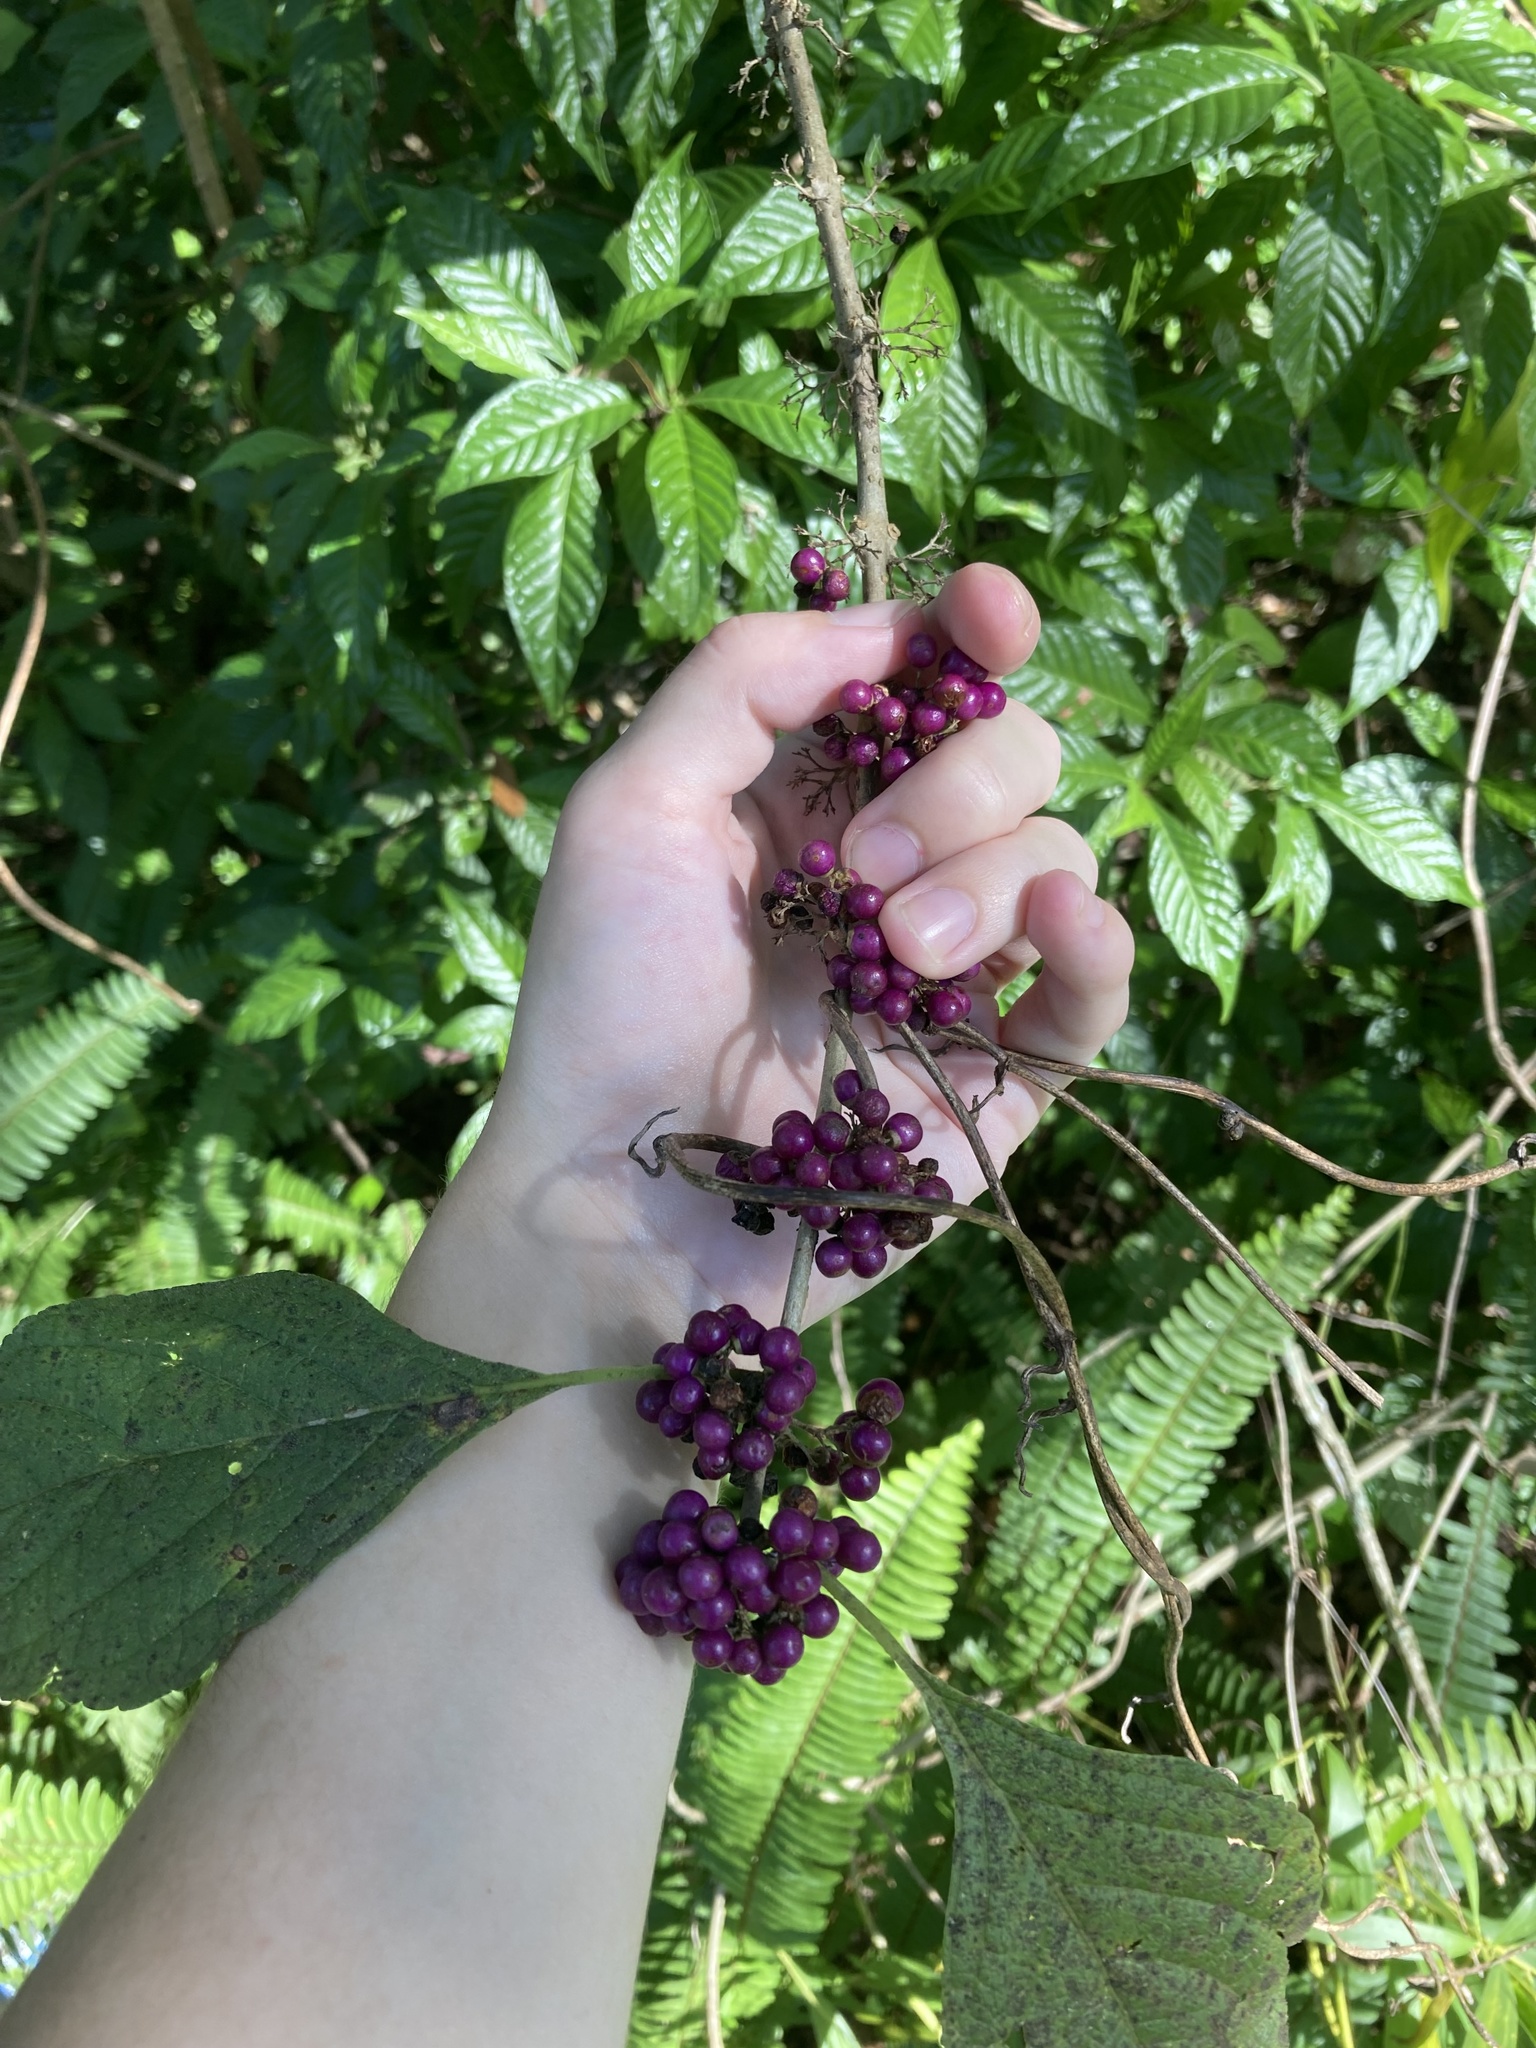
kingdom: Plantae
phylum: Tracheophyta
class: Magnoliopsida
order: Lamiales
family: Lamiaceae
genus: Callicarpa
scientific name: Callicarpa americana
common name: American beautyberry
